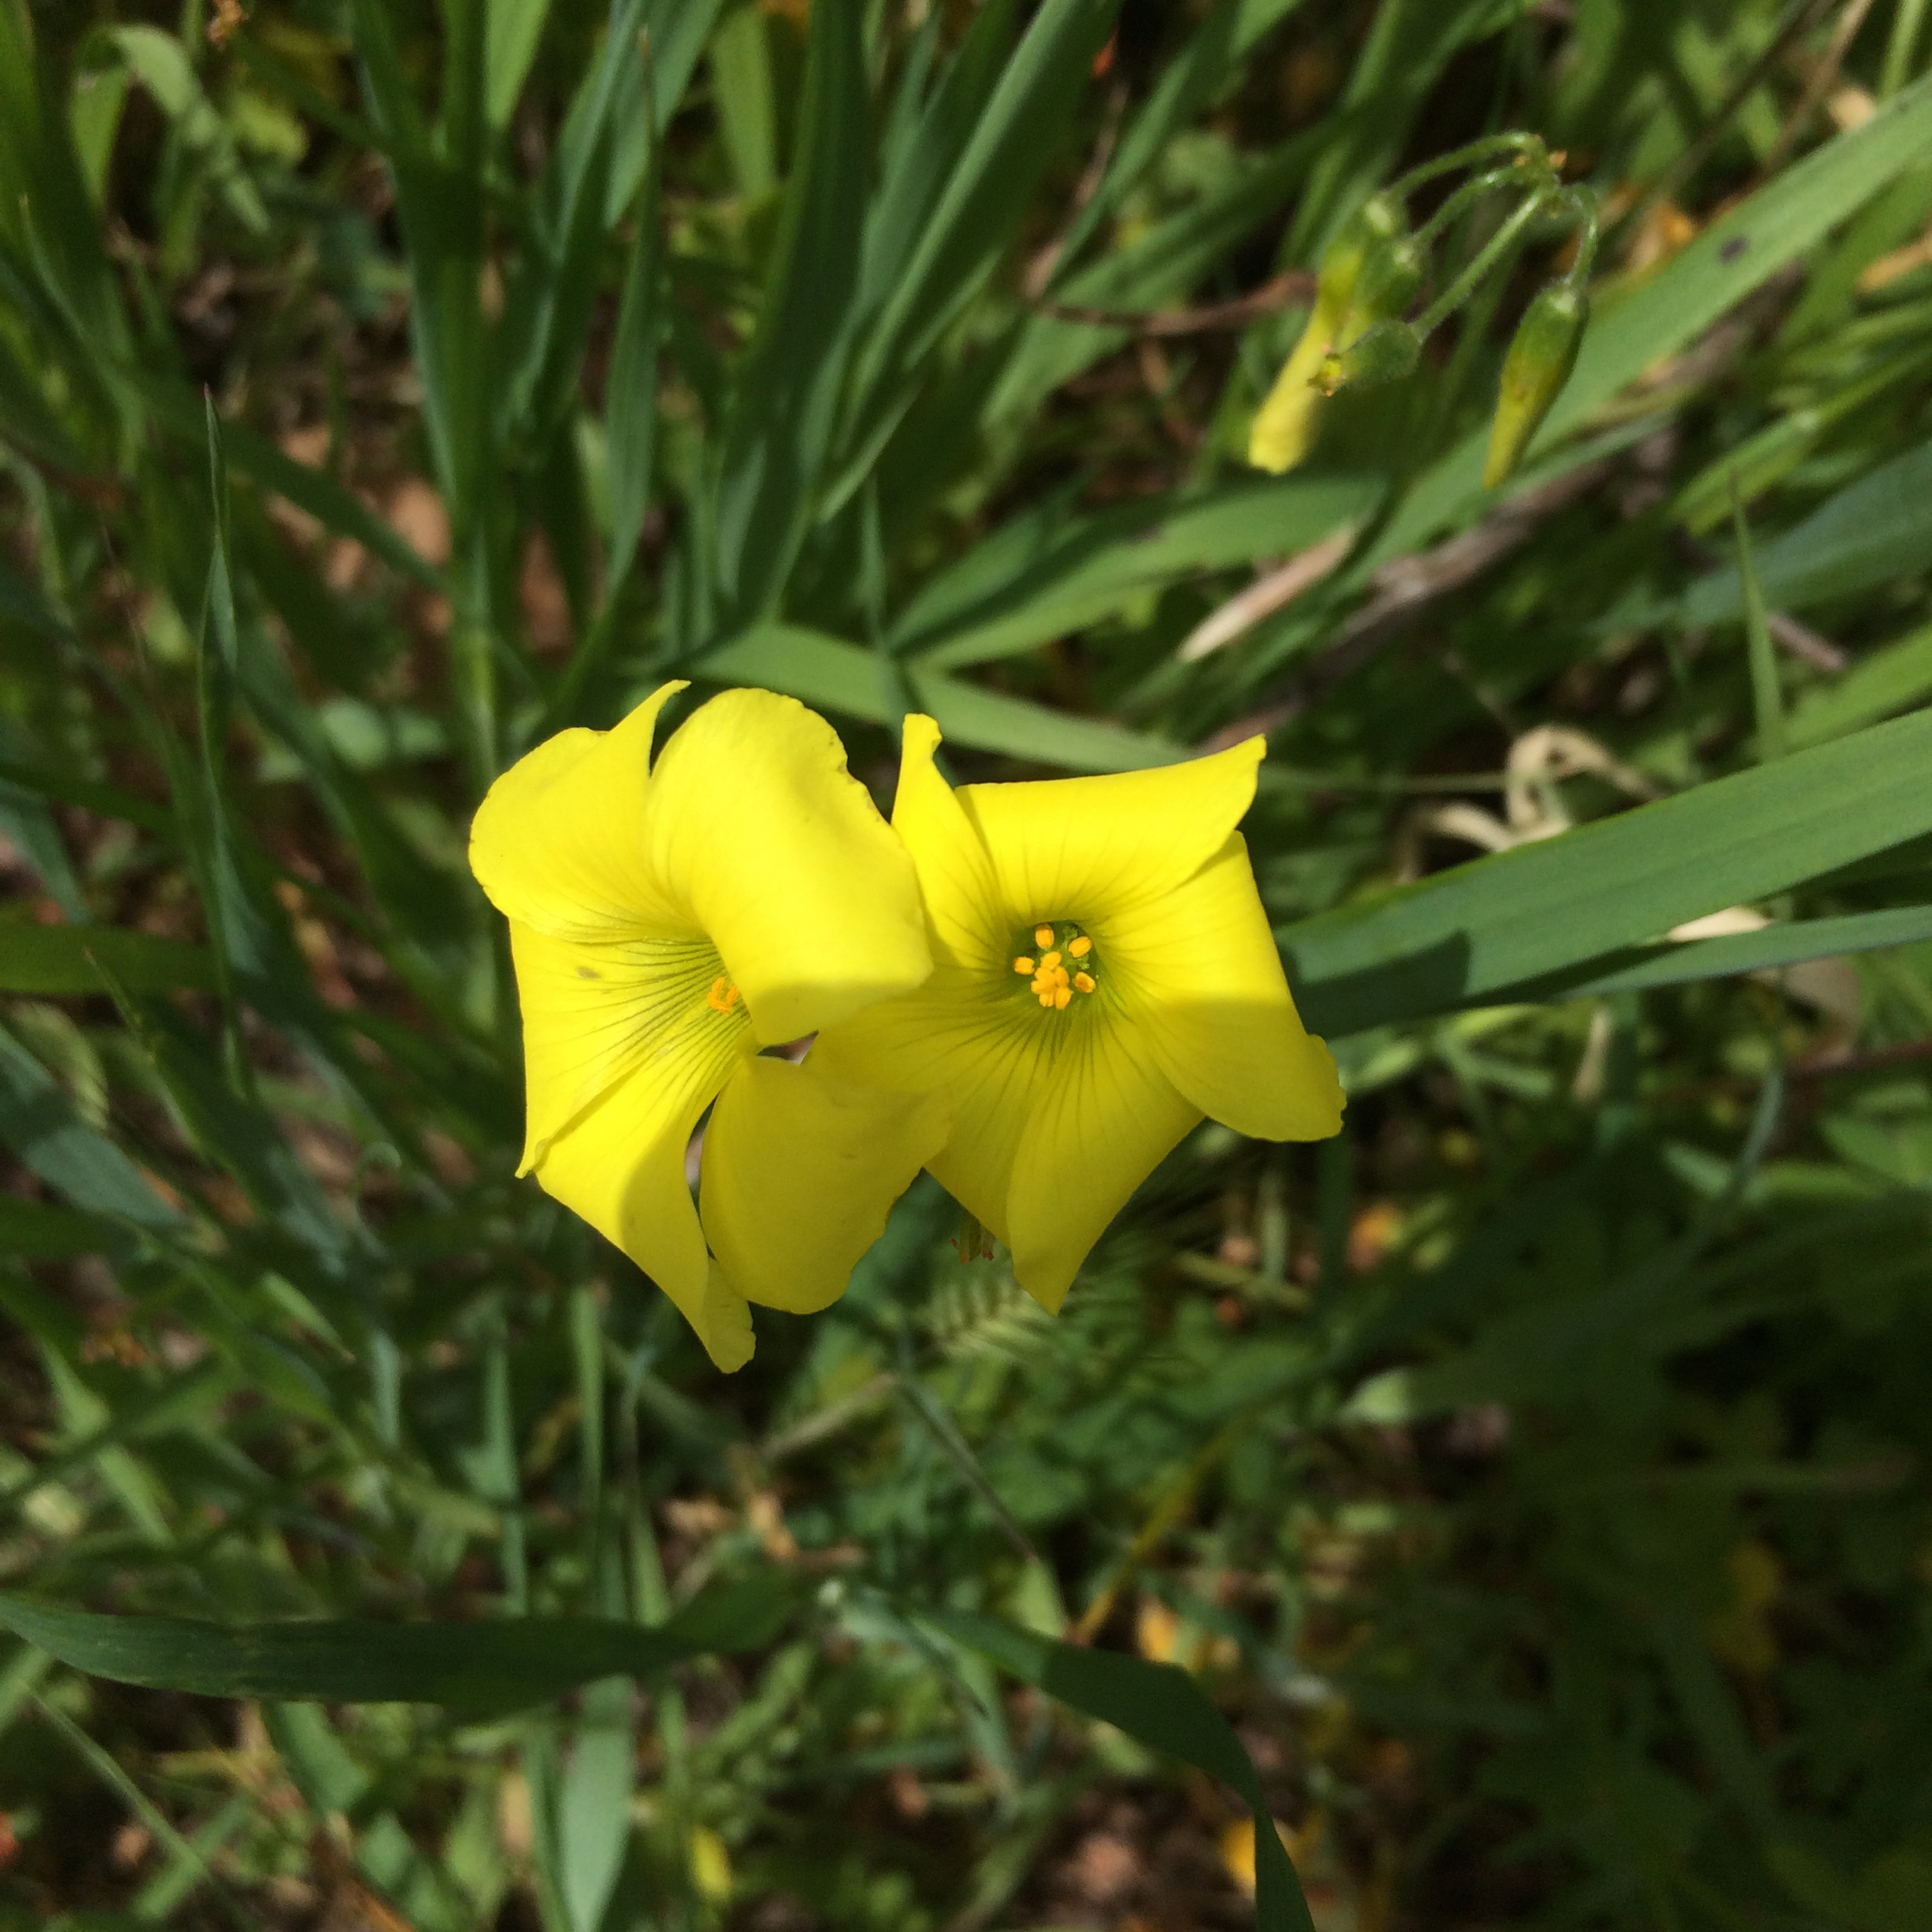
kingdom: Plantae
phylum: Tracheophyta
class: Magnoliopsida
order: Oxalidales
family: Oxalidaceae
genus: Oxalis
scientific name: Oxalis pes-caprae
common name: Bermuda-buttercup
